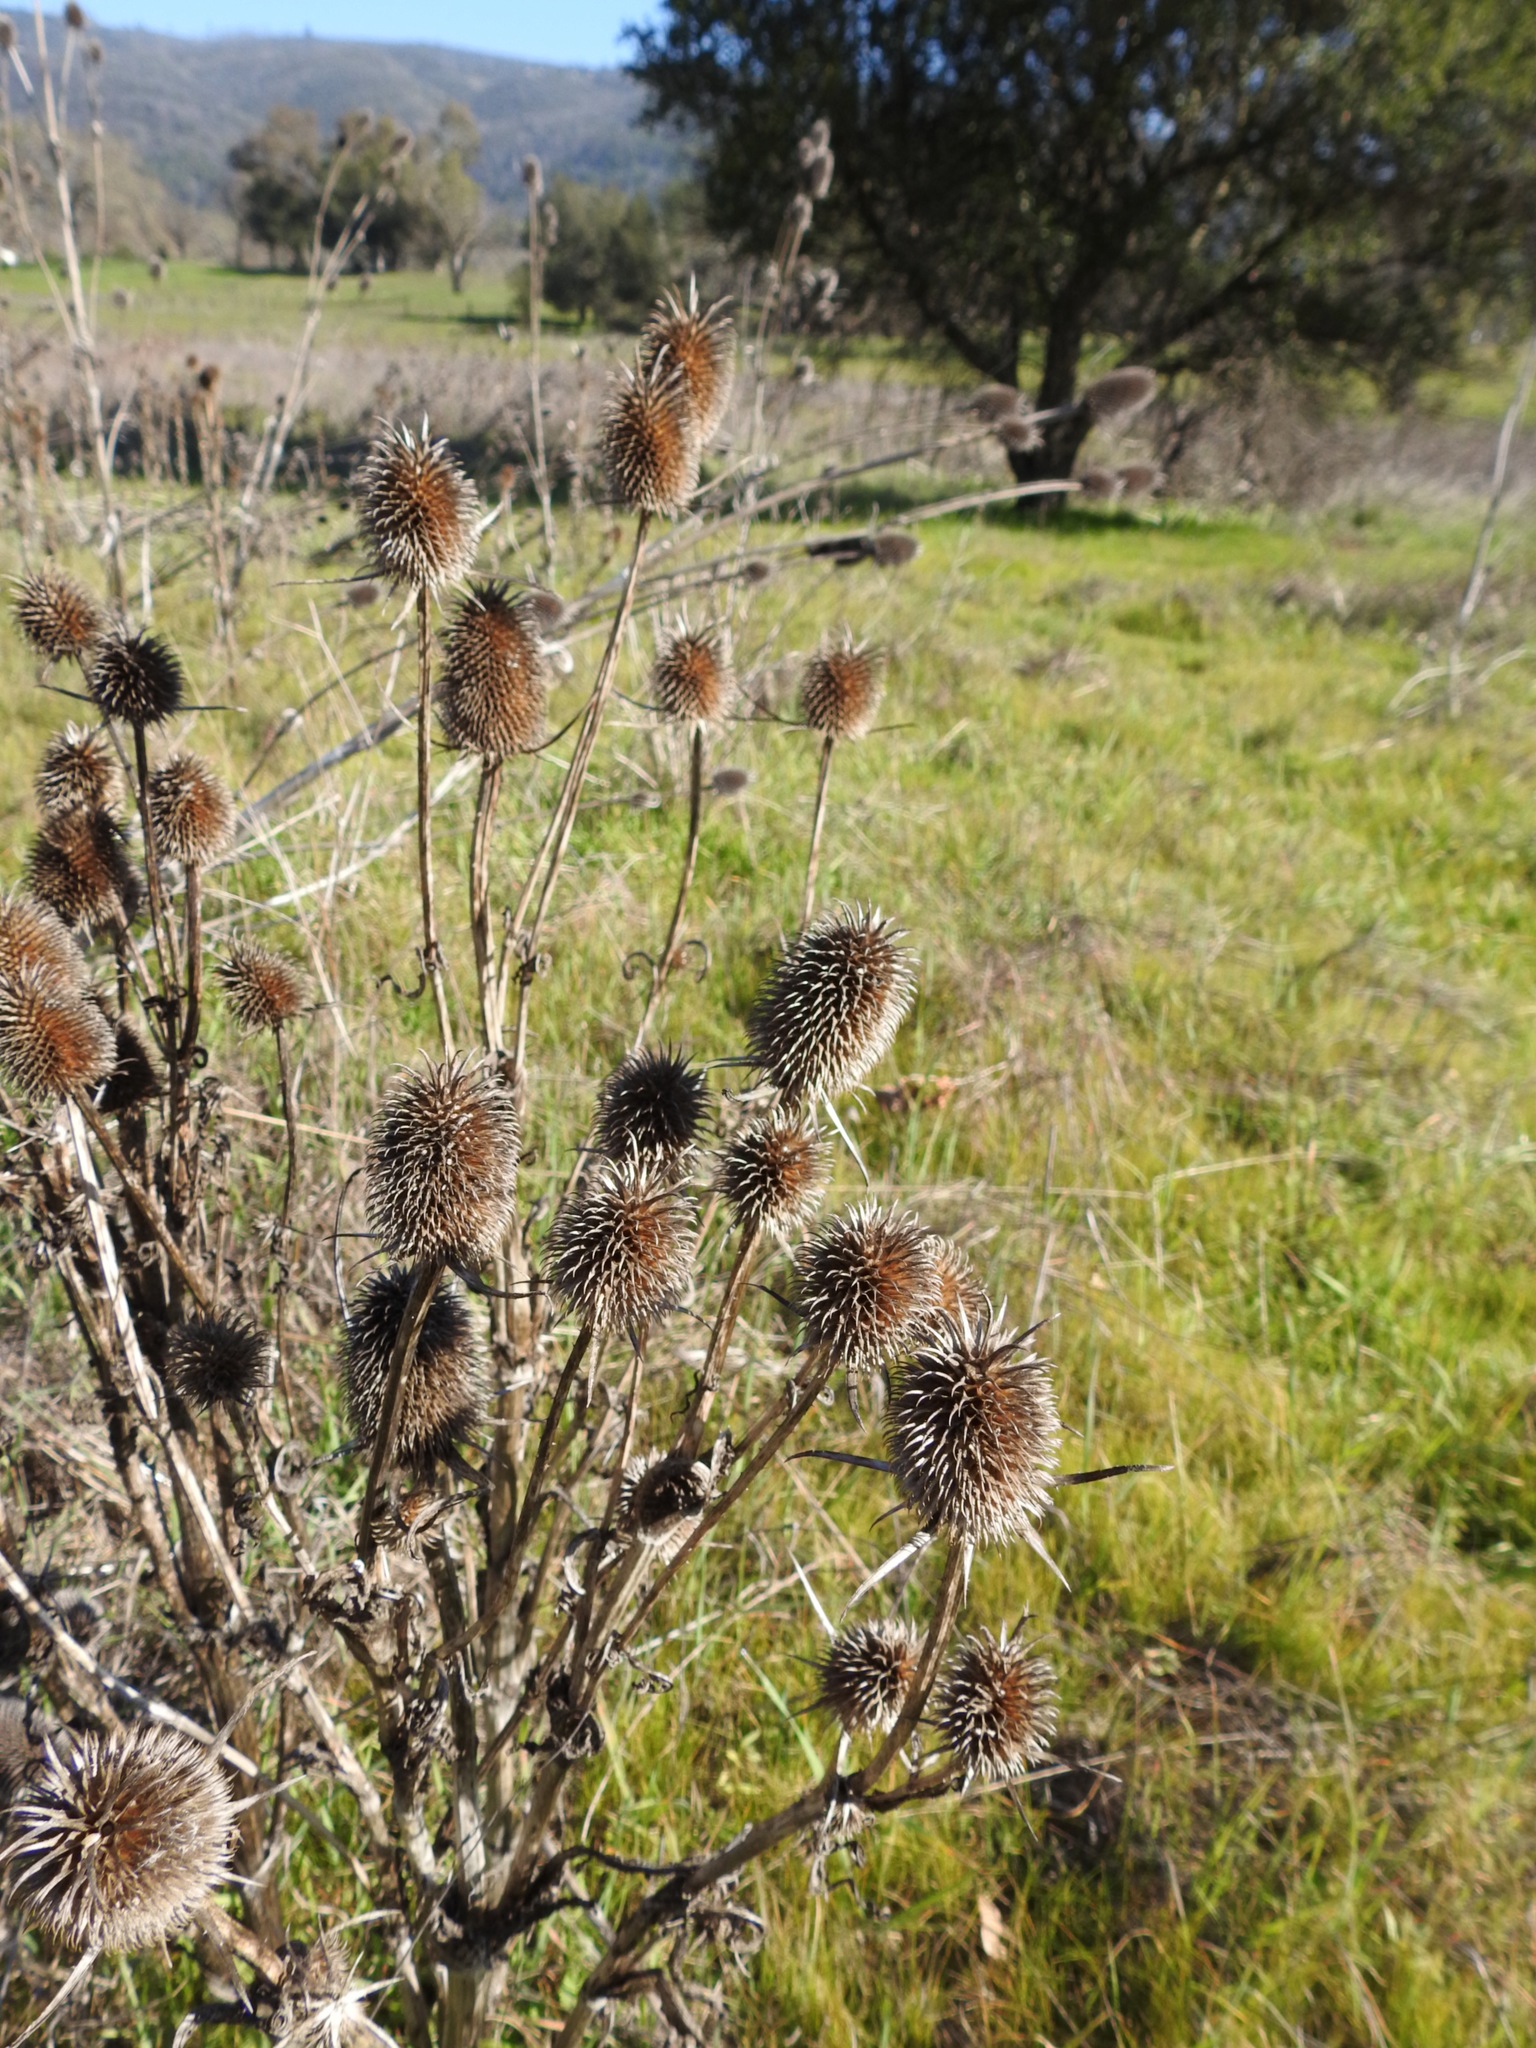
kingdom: Plantae
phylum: Tracheophyta
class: Magnoliopsida
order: Dipsacales
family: Caprifoliaceae
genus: Dipsacus
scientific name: Dipsacus sativus
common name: Fuller's teasel
